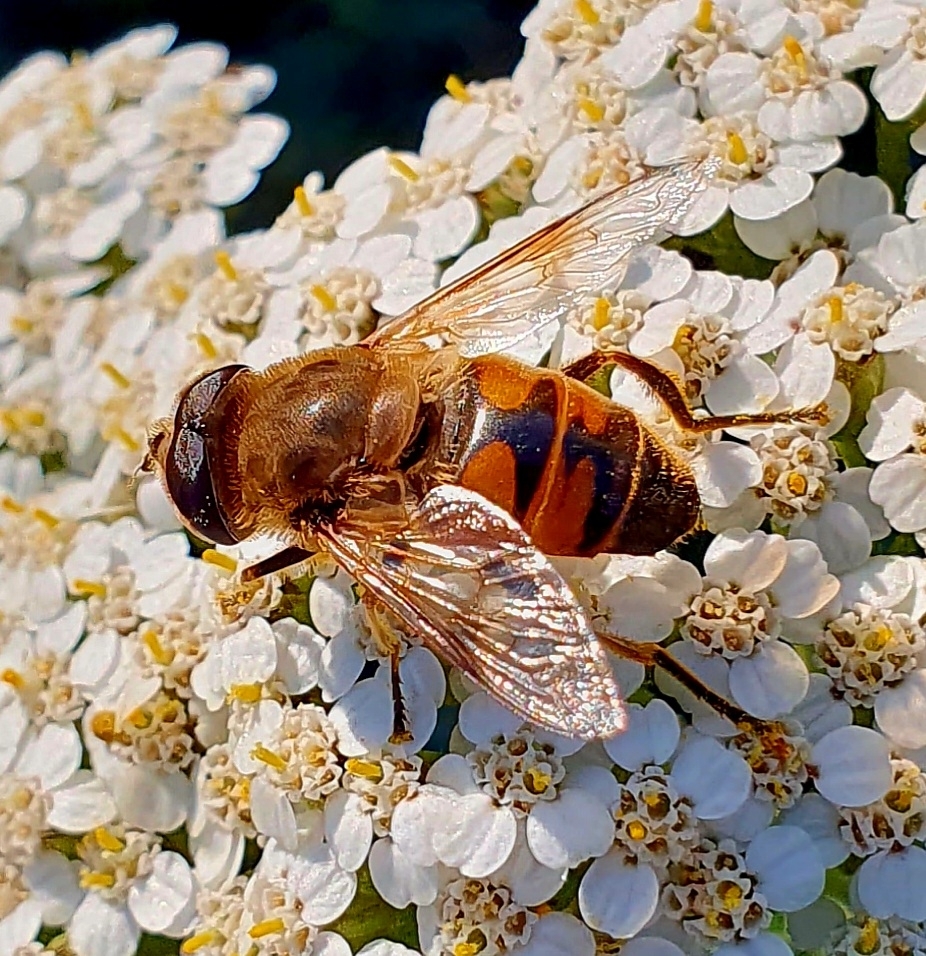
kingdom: Animalia
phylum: Arthropoda
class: Insecta
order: Diptera
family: Syrphidae
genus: Eristalis
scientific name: Eristalis tenax
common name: Drone fly
